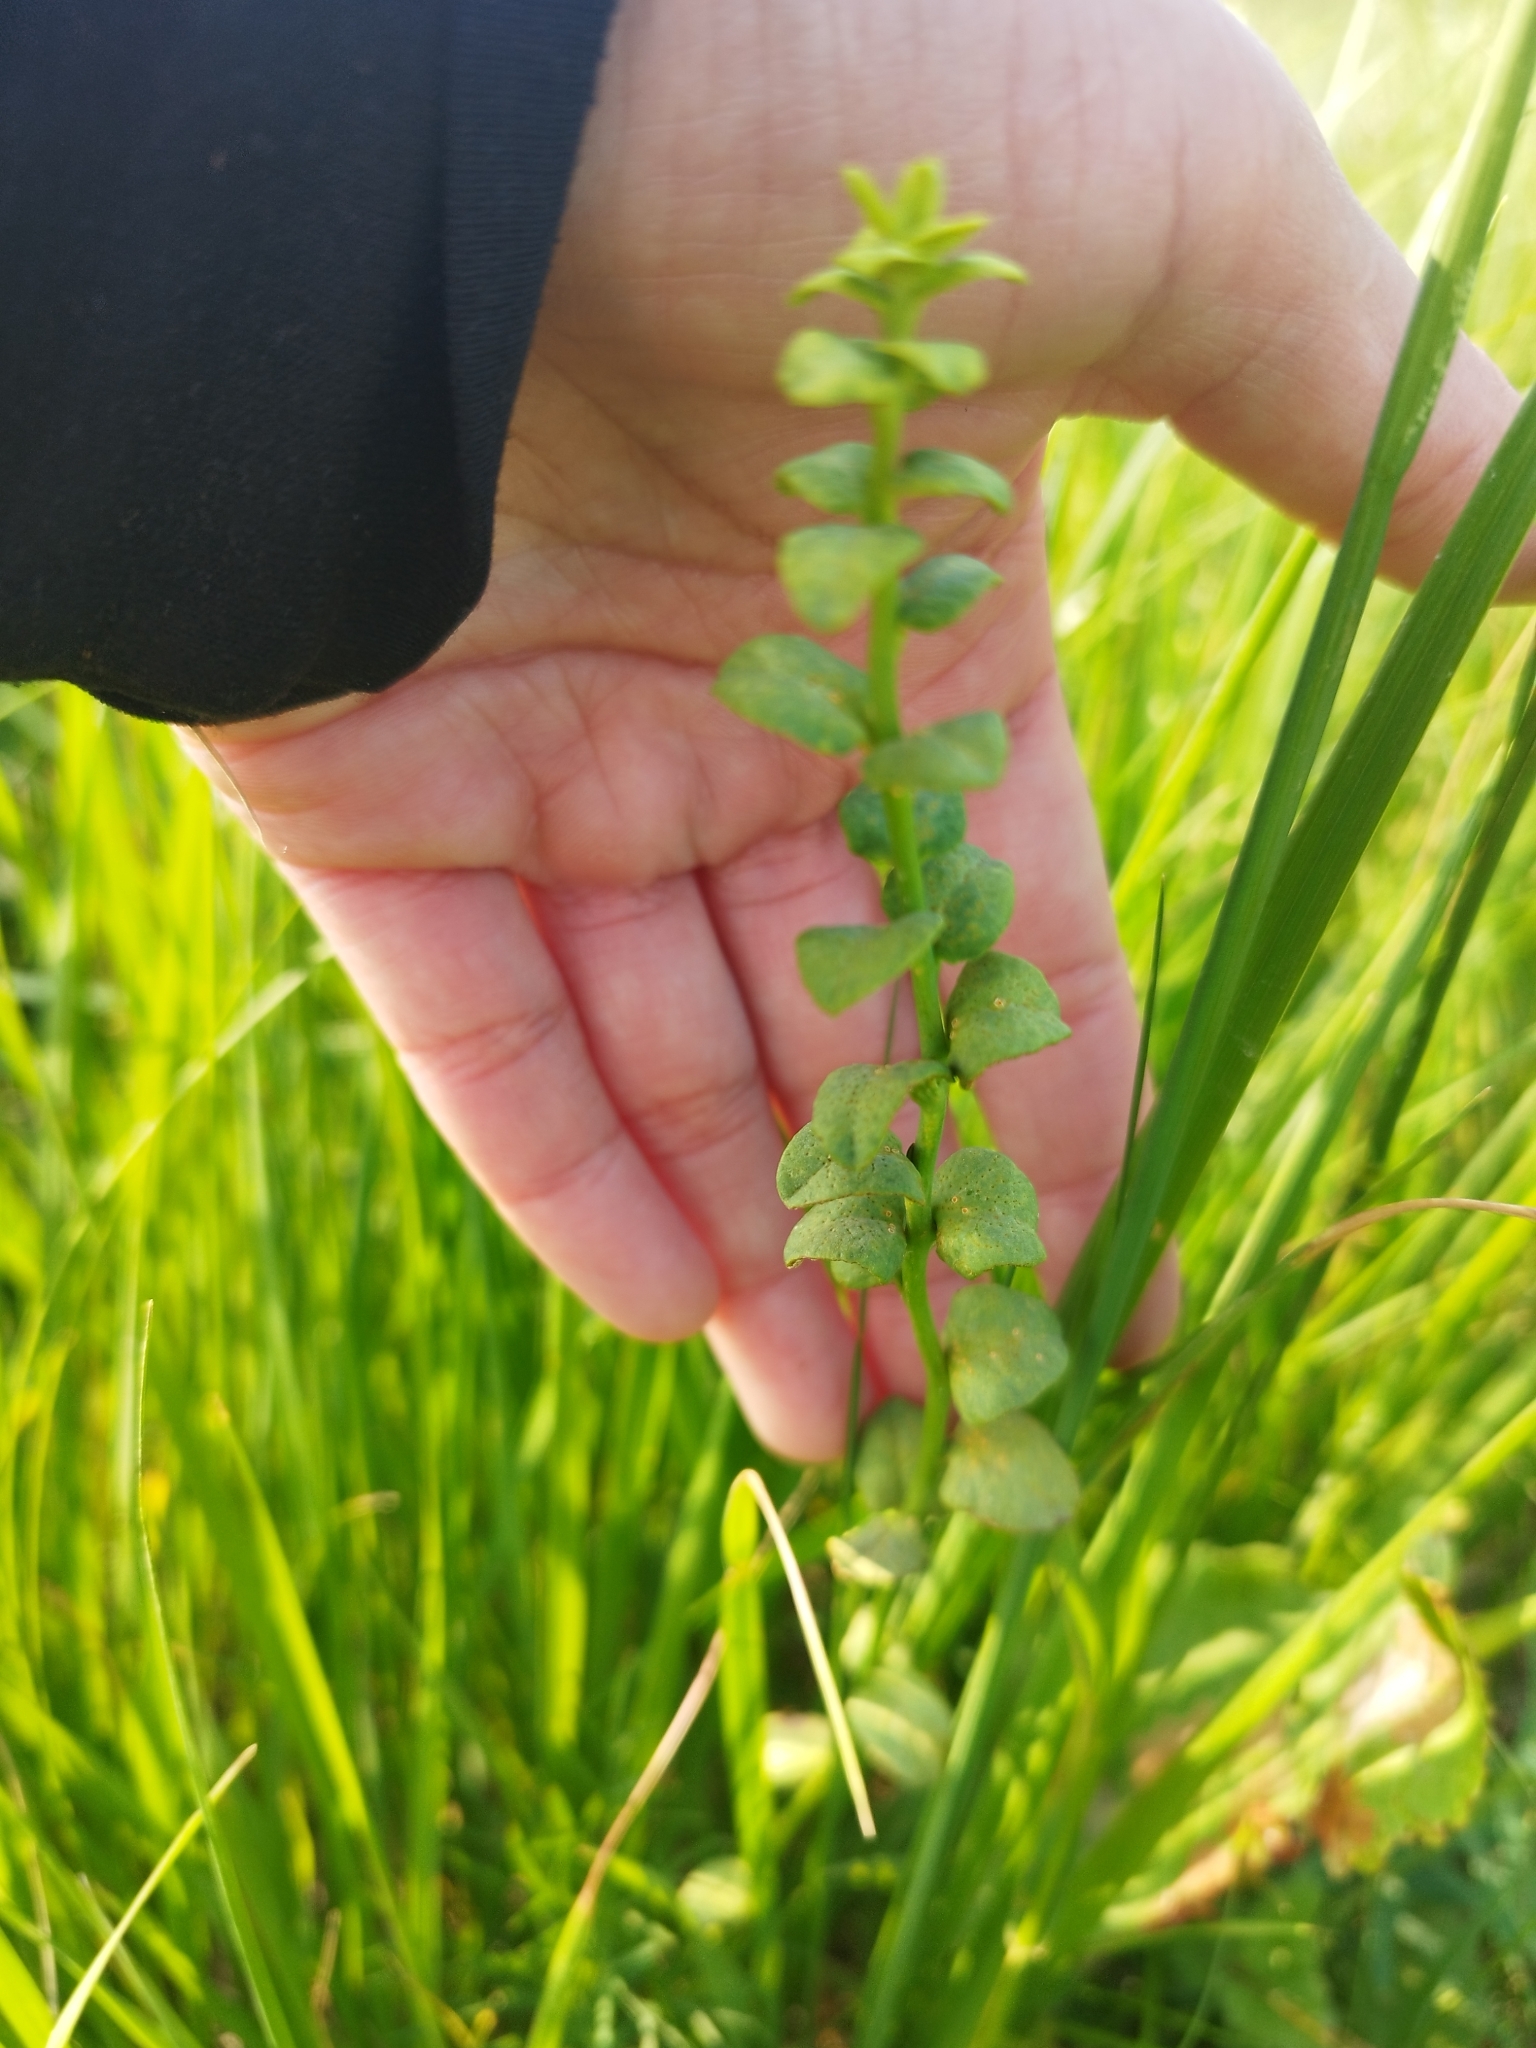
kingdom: Plantae
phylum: Tracheophyta
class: Magnoliopsida
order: Malpighiales
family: Euphorbiaceae
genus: Euphorbia
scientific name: Euphorbia virgata
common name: Leafy spurge
